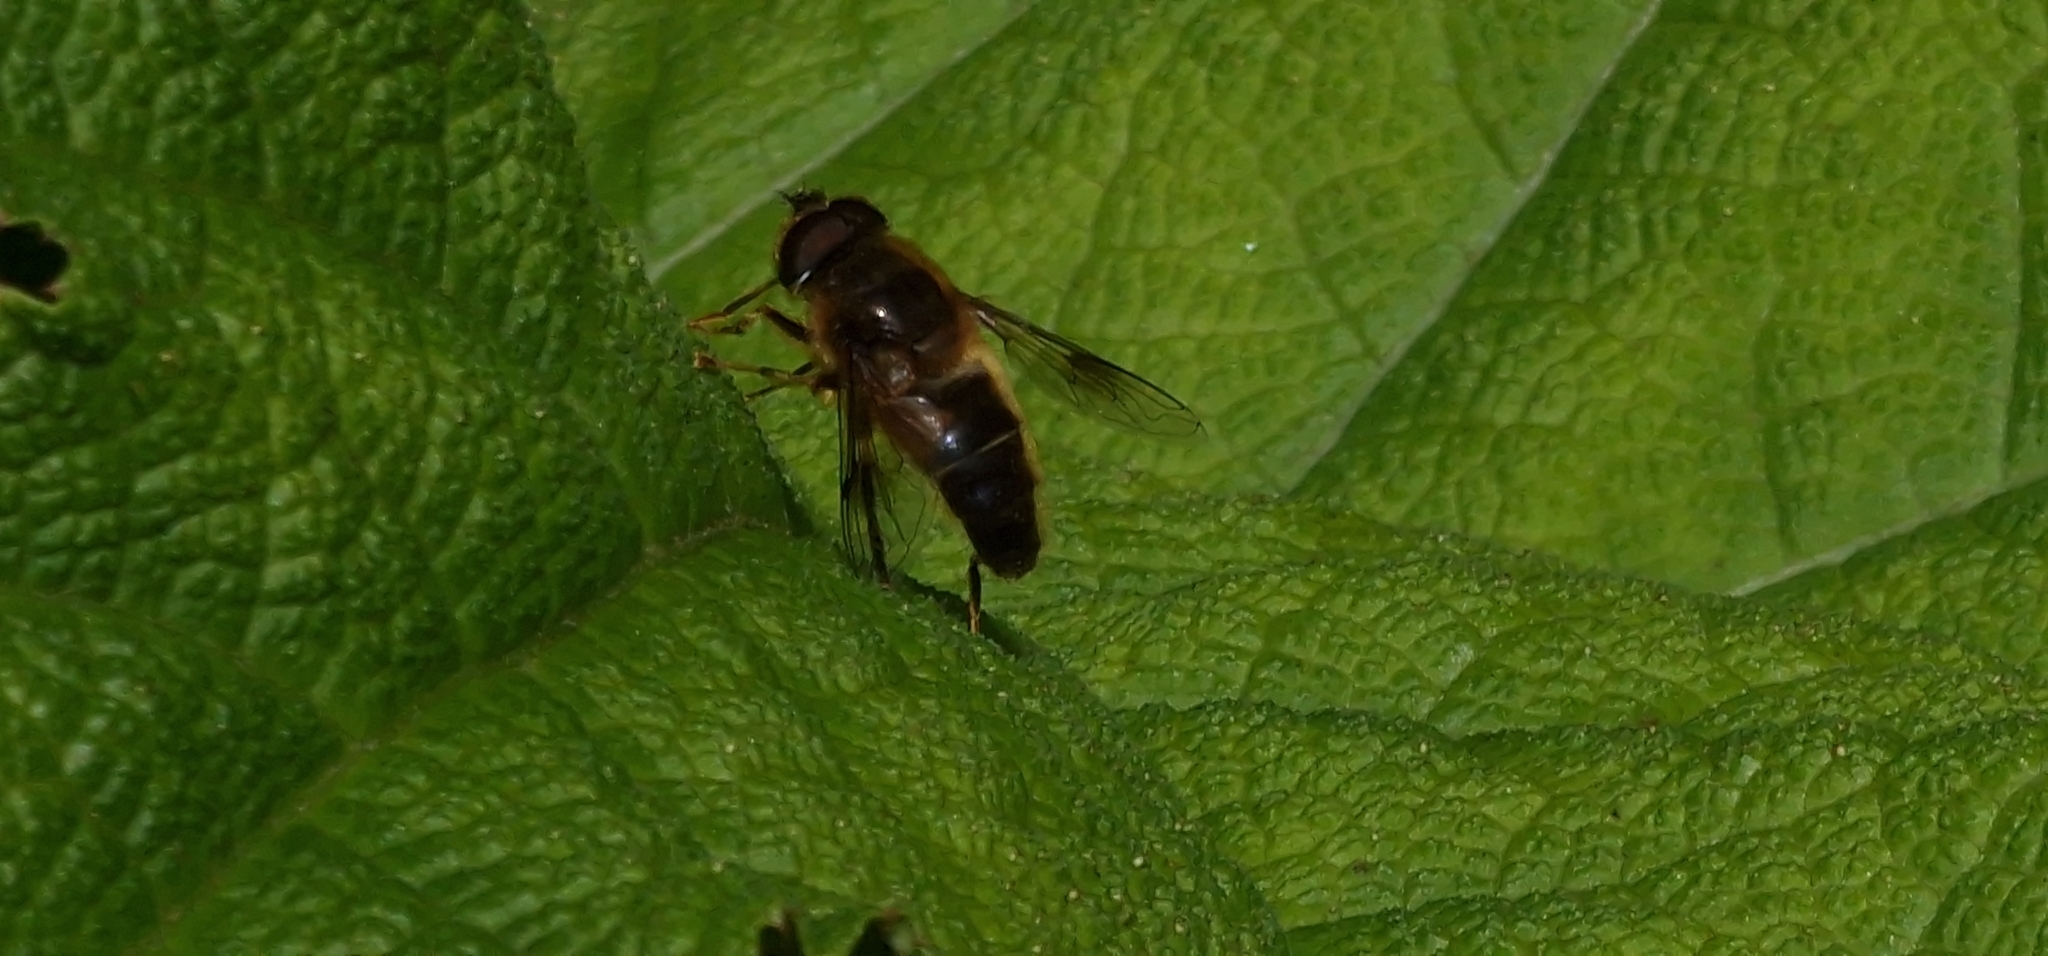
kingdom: Animalia
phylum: Arthropoda
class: Insecta
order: Diptera
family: Syrphidae
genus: Eristalis
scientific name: Eristalis pertinax
